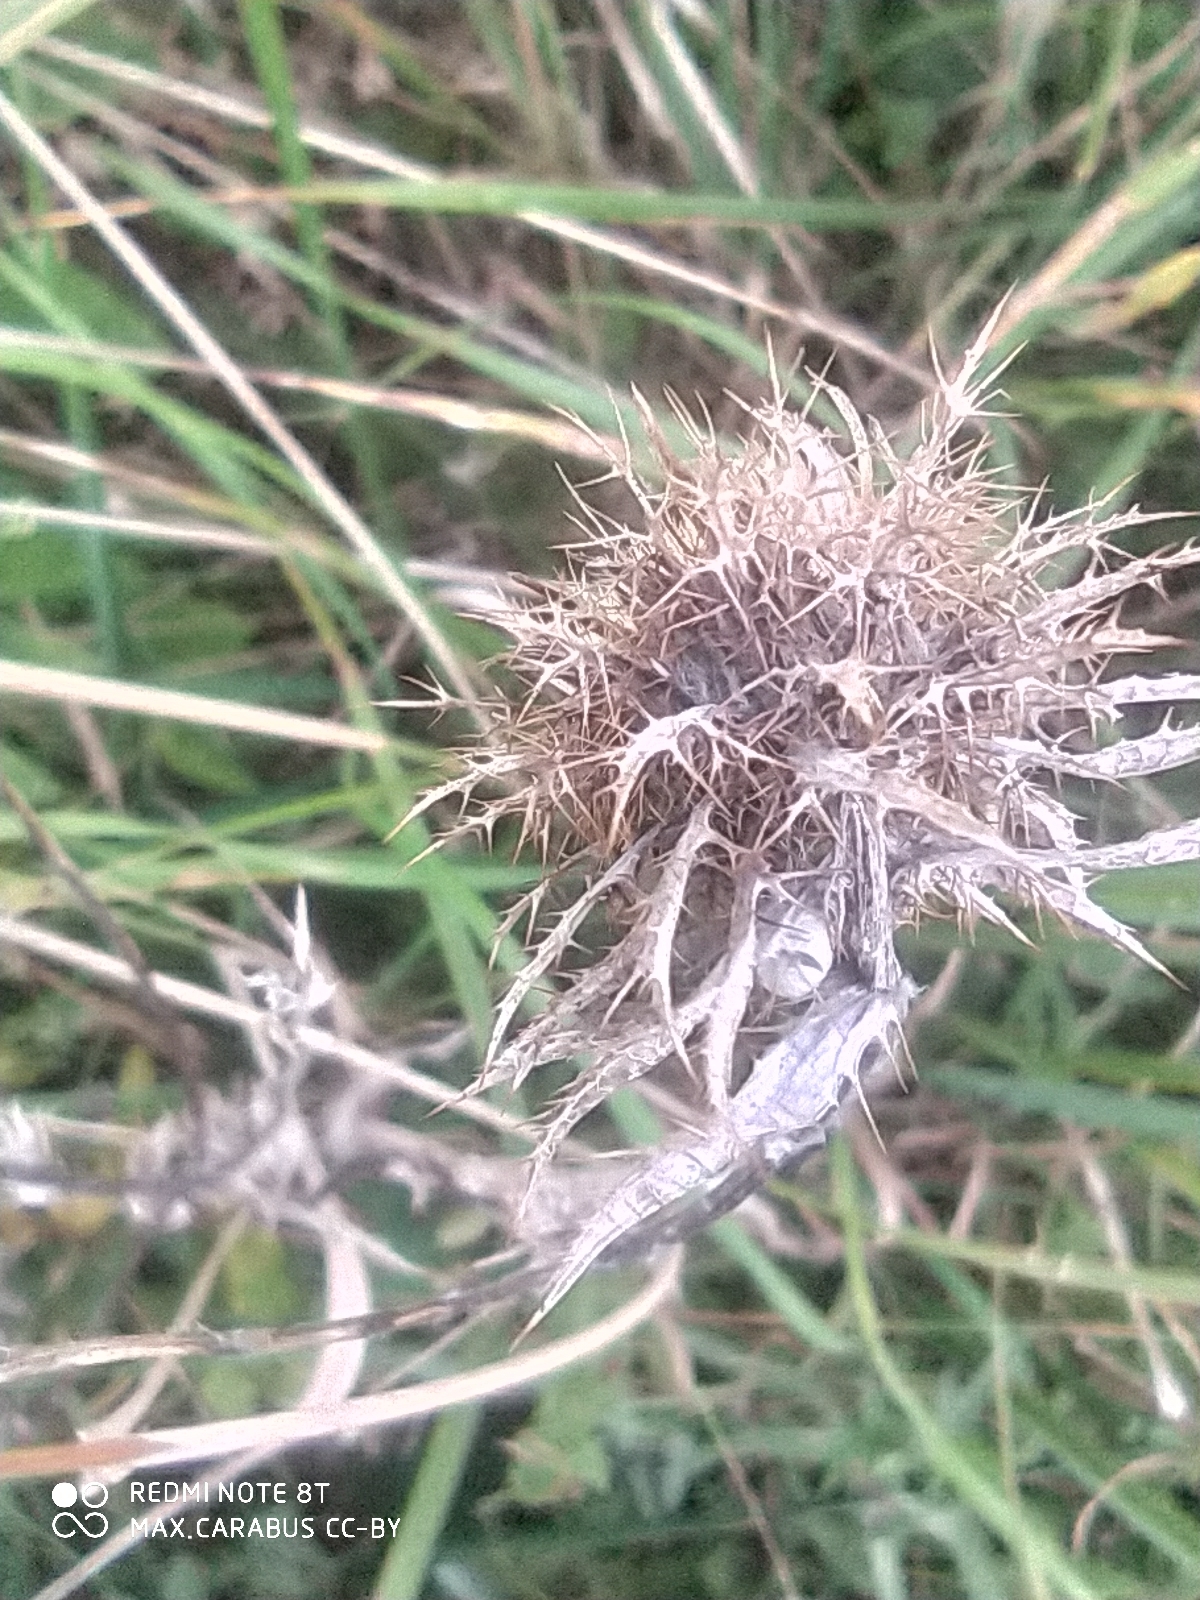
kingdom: Plantae
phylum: Tracheophyta
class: Magnoliopsida
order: Asterales
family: Asteraceae
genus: Carlina
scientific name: Carlina biebersteinii
